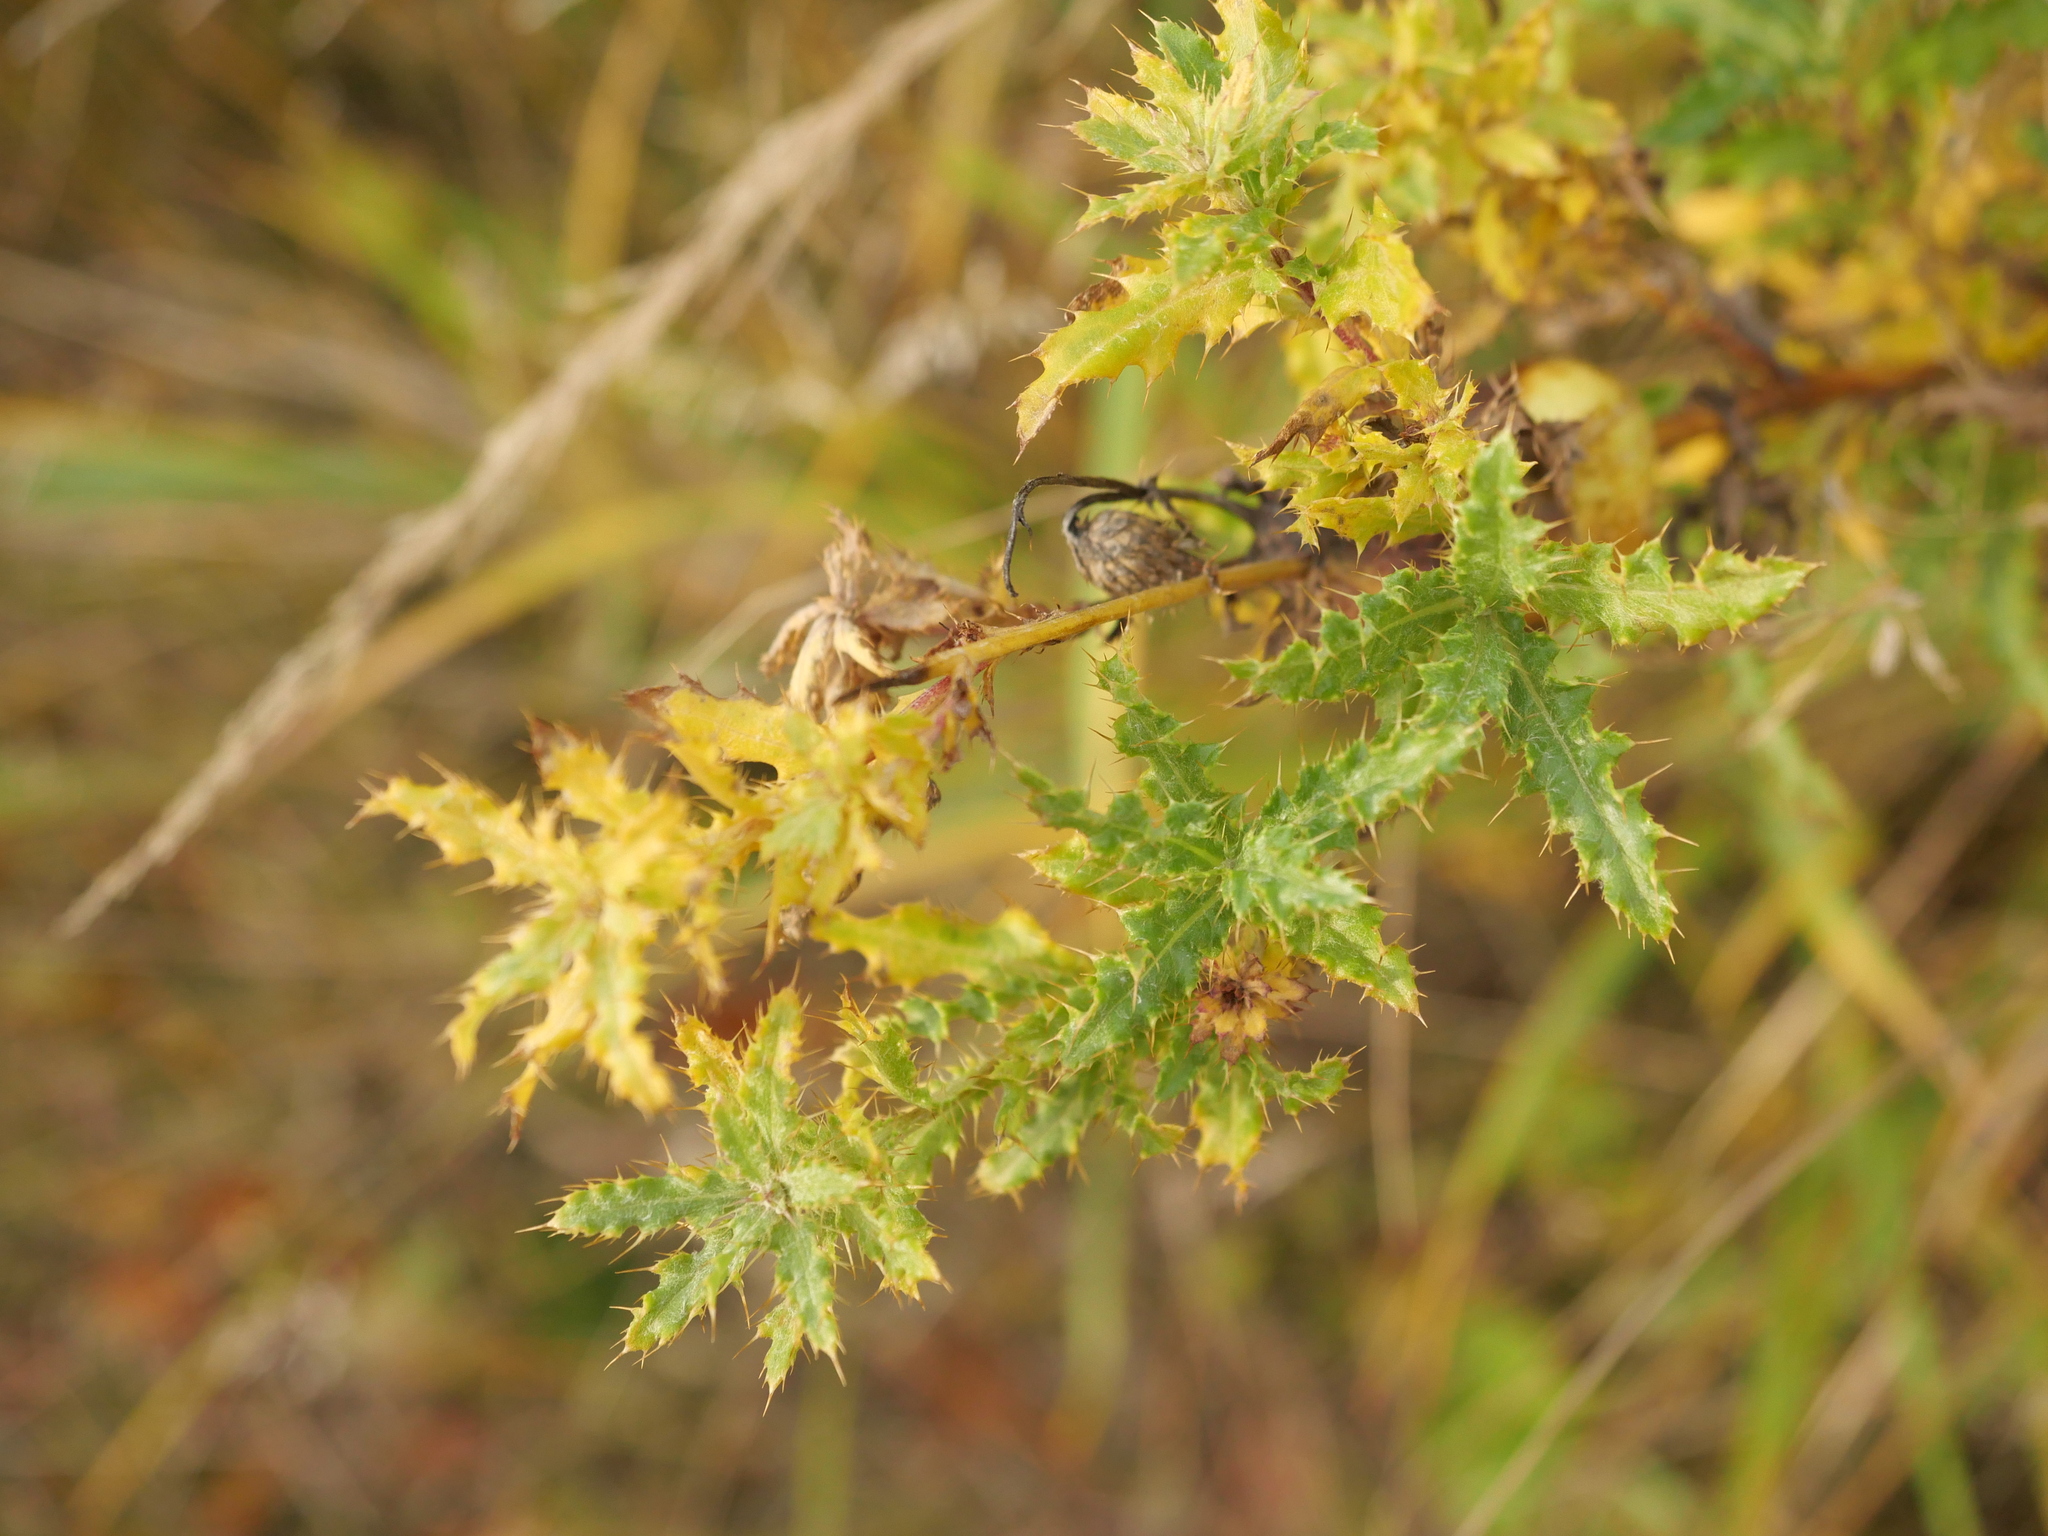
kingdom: Plantae
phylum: Tracheophyta
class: Magnoliopsida
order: Asterales
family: Asteraceae
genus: Cirsium
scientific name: Cirsium arvense
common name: Creeping thistle
